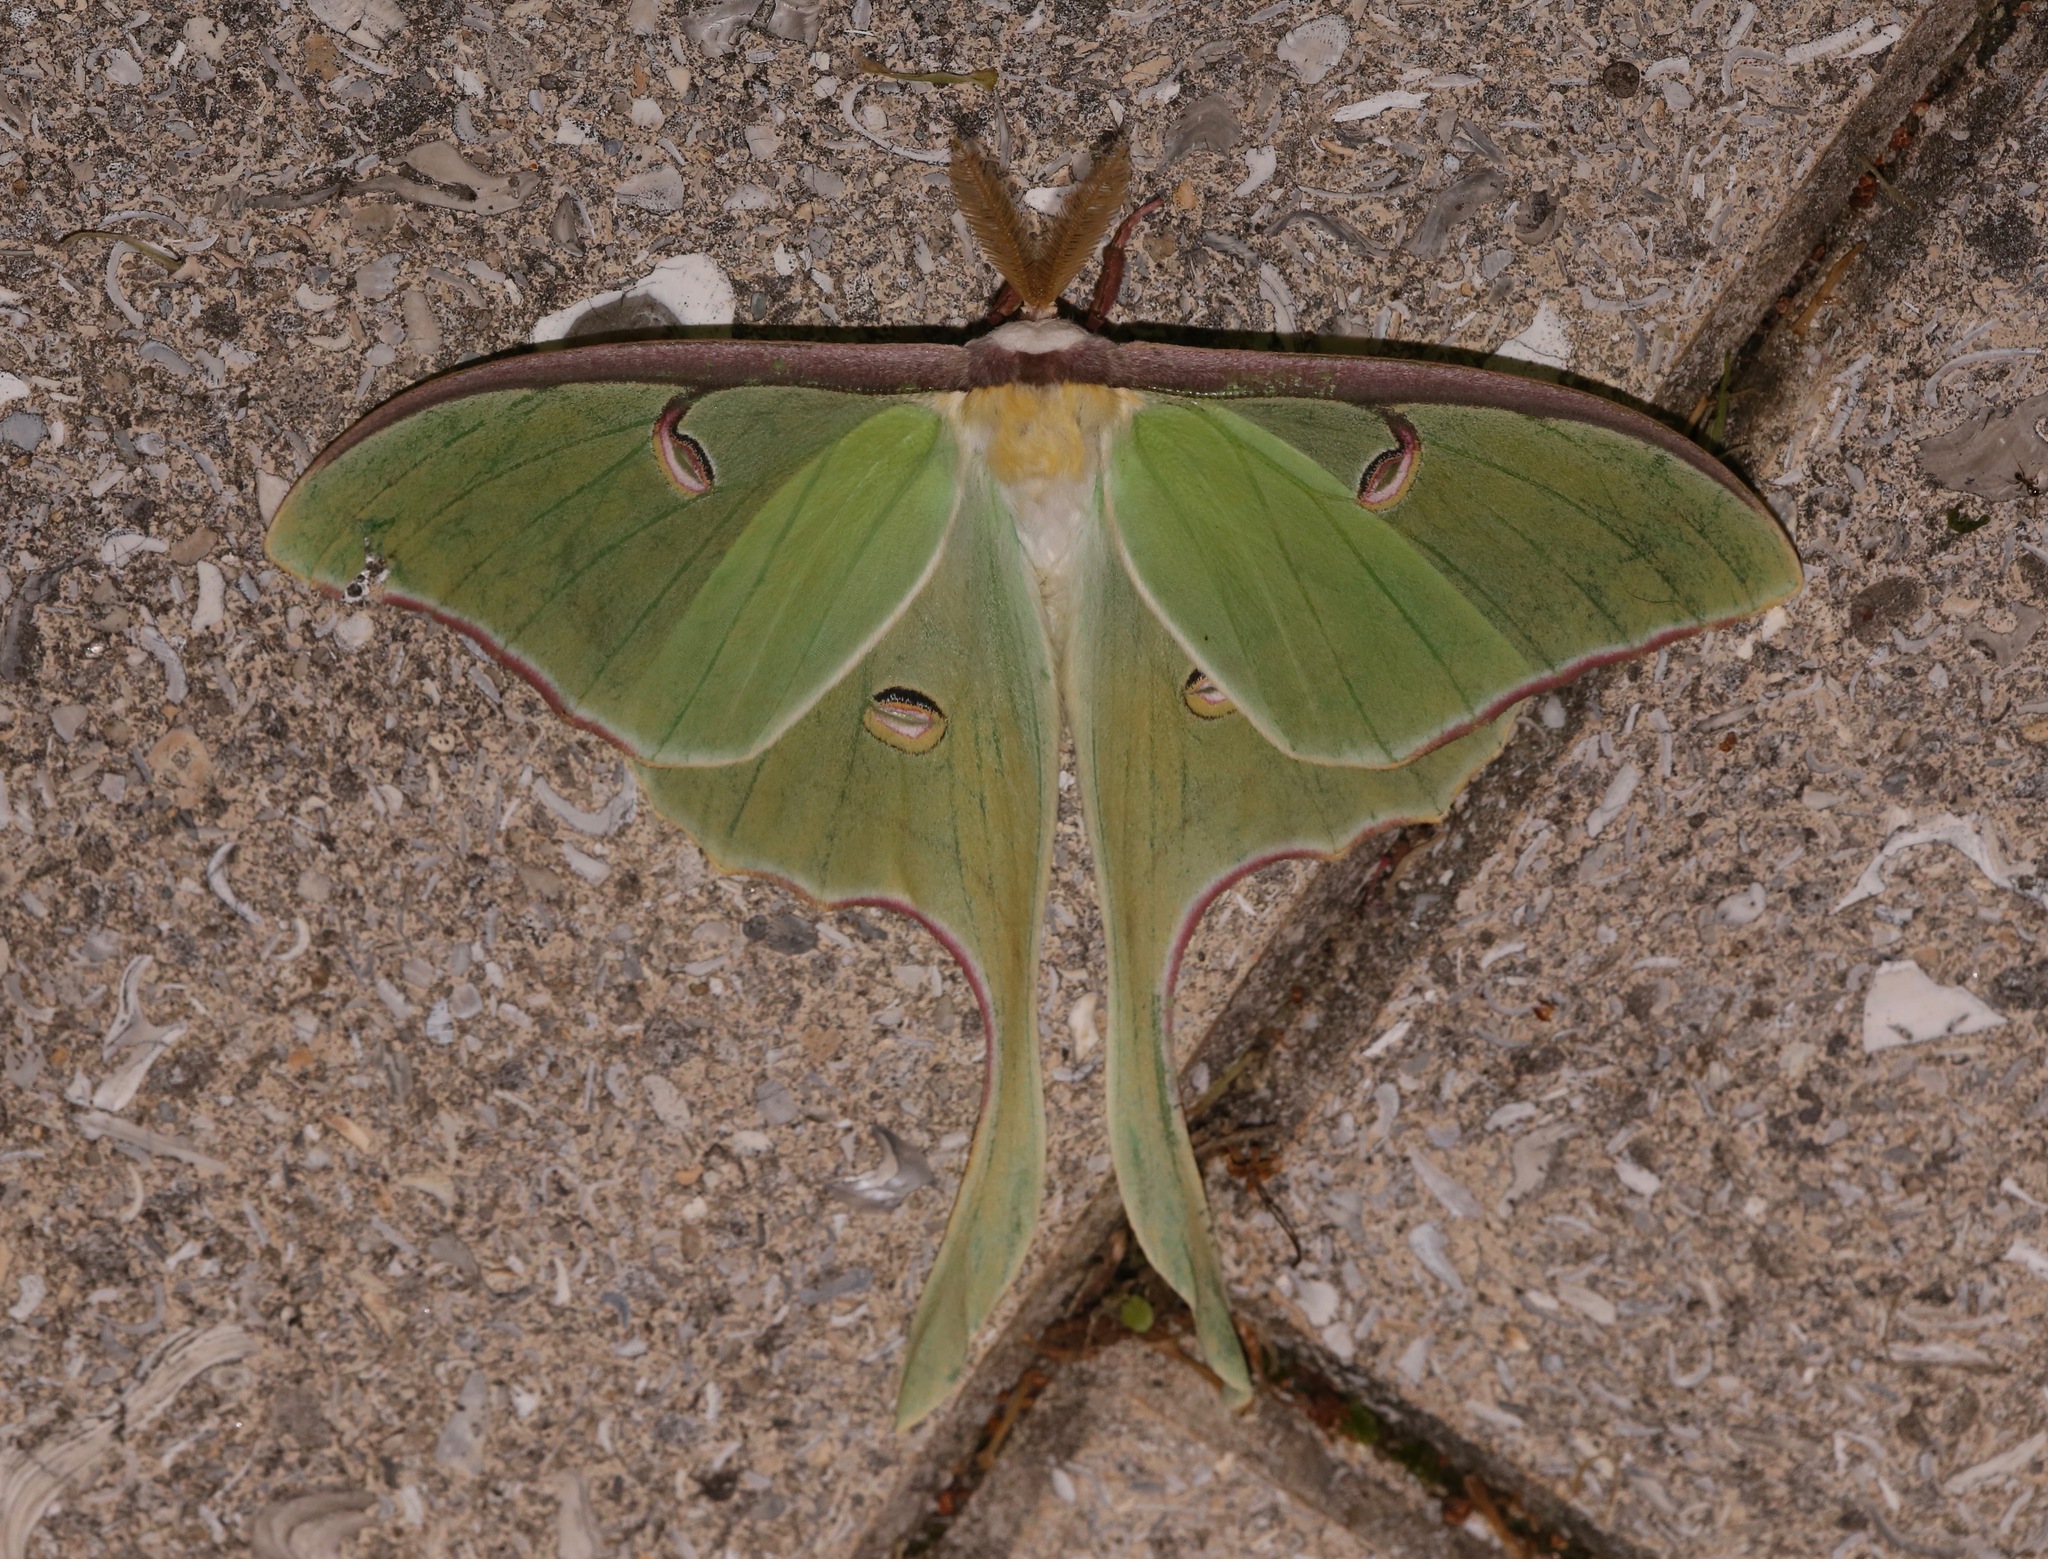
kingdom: Animalia
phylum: Arthropoda
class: Insecta
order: Lepidoptera
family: Saturniidae
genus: Actias
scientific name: Actias luna
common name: Luna moth
